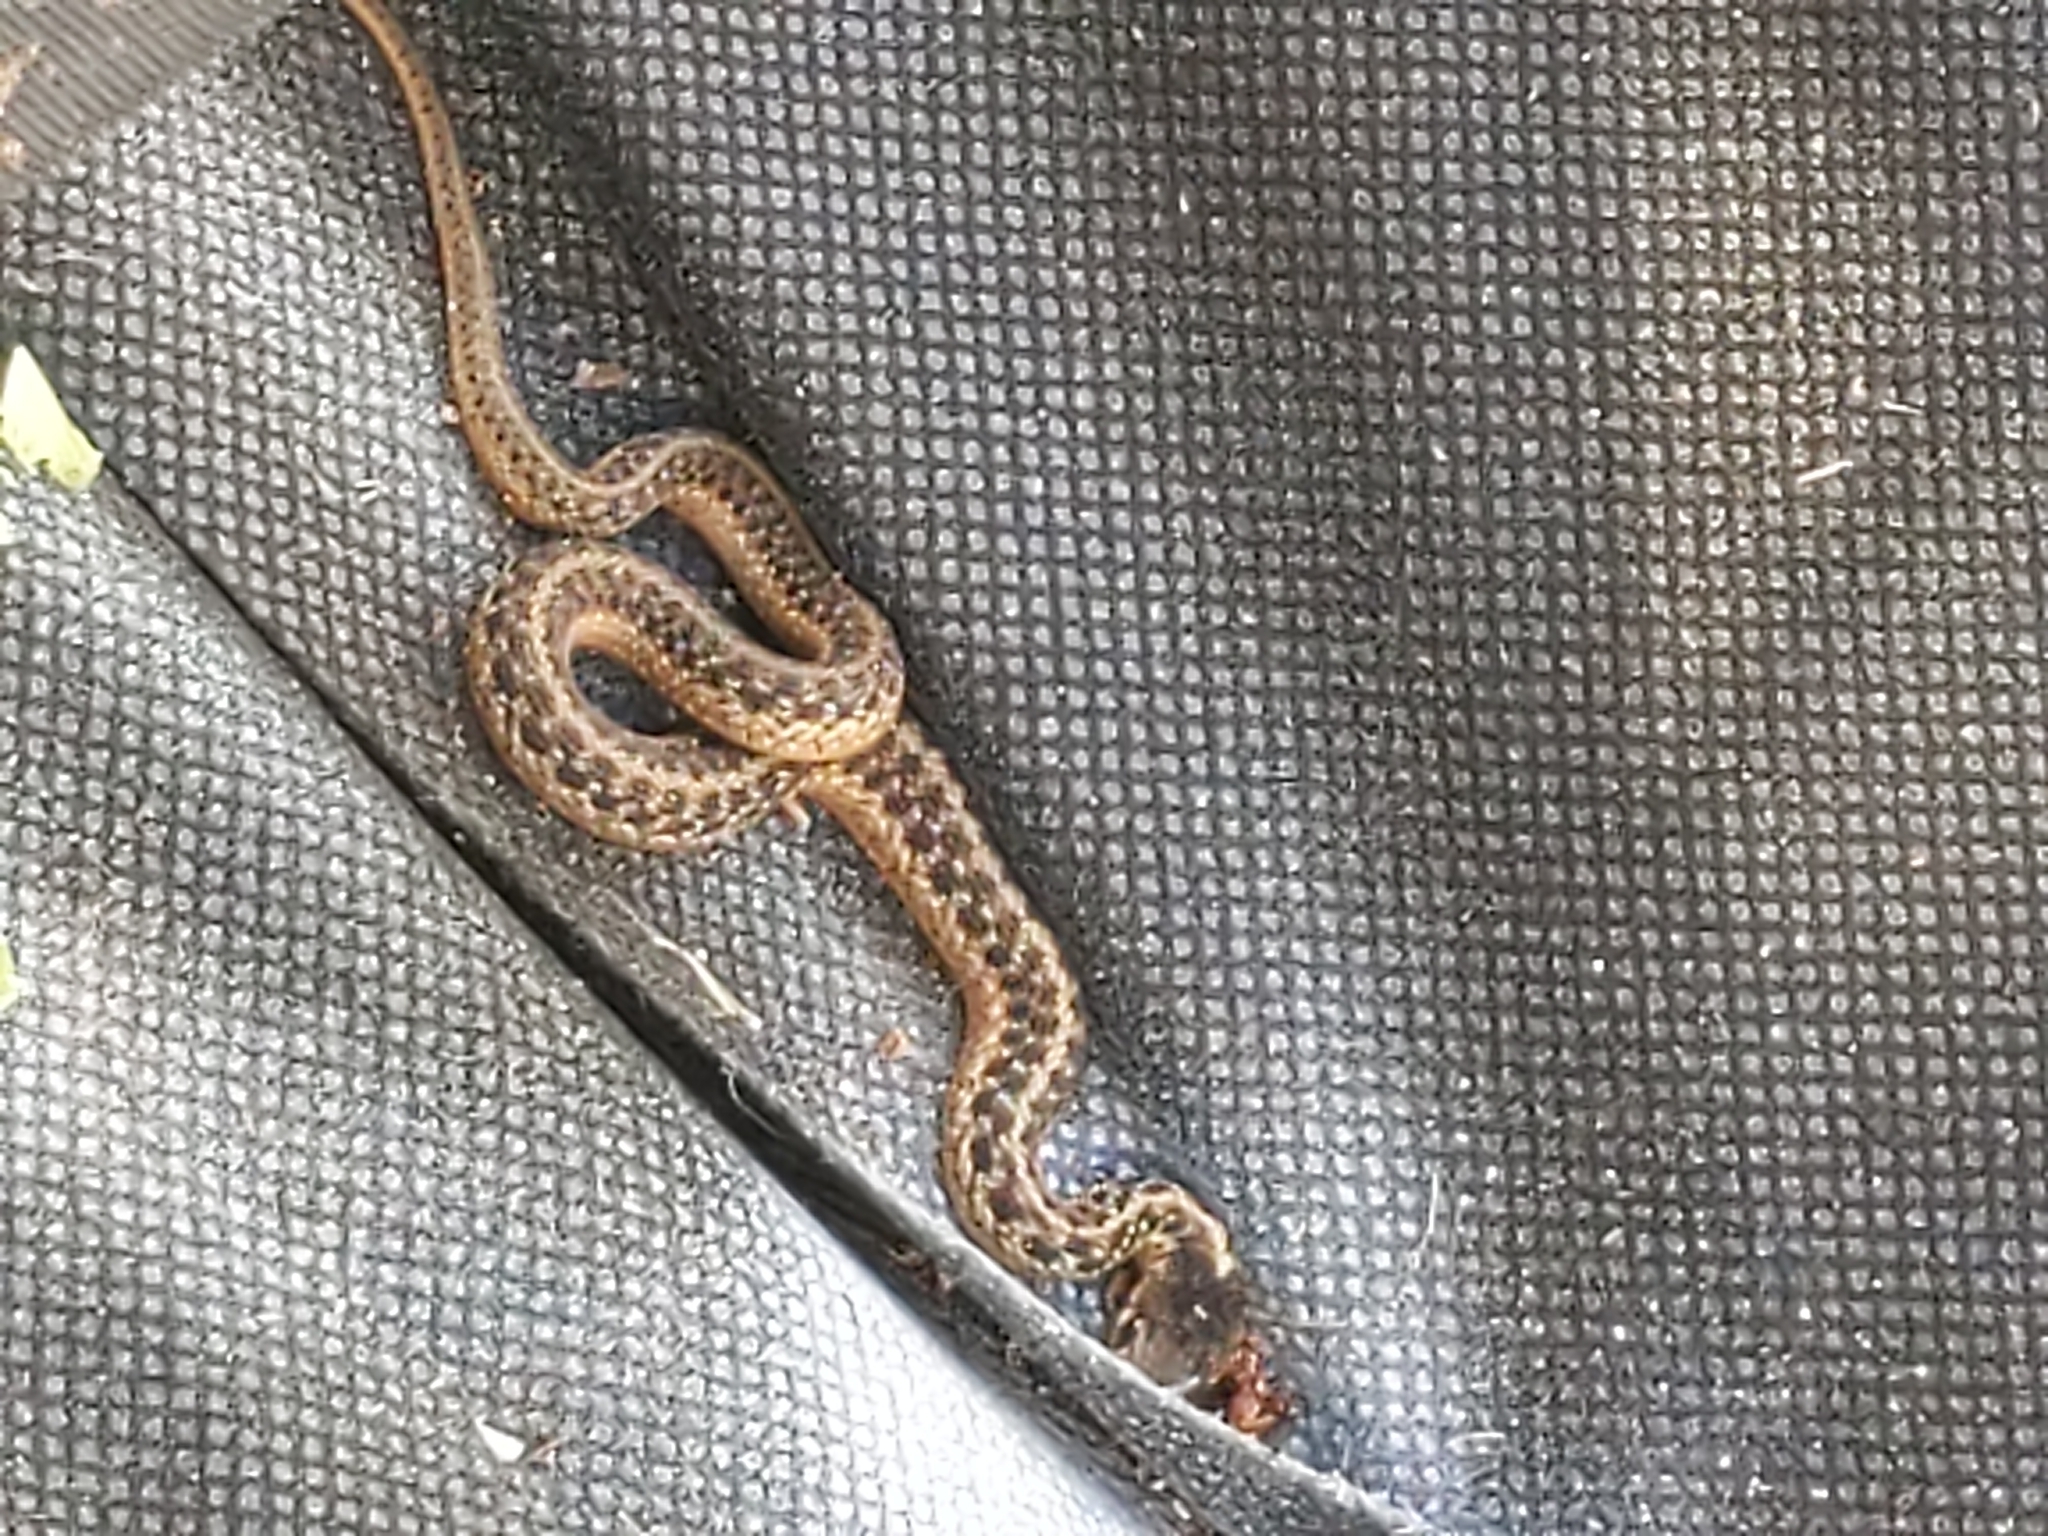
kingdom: Animalia
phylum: Chordata
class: Squamata
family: Colubridae
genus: Thamnophis
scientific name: Thamnophis sirtalis
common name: Common garter snake
